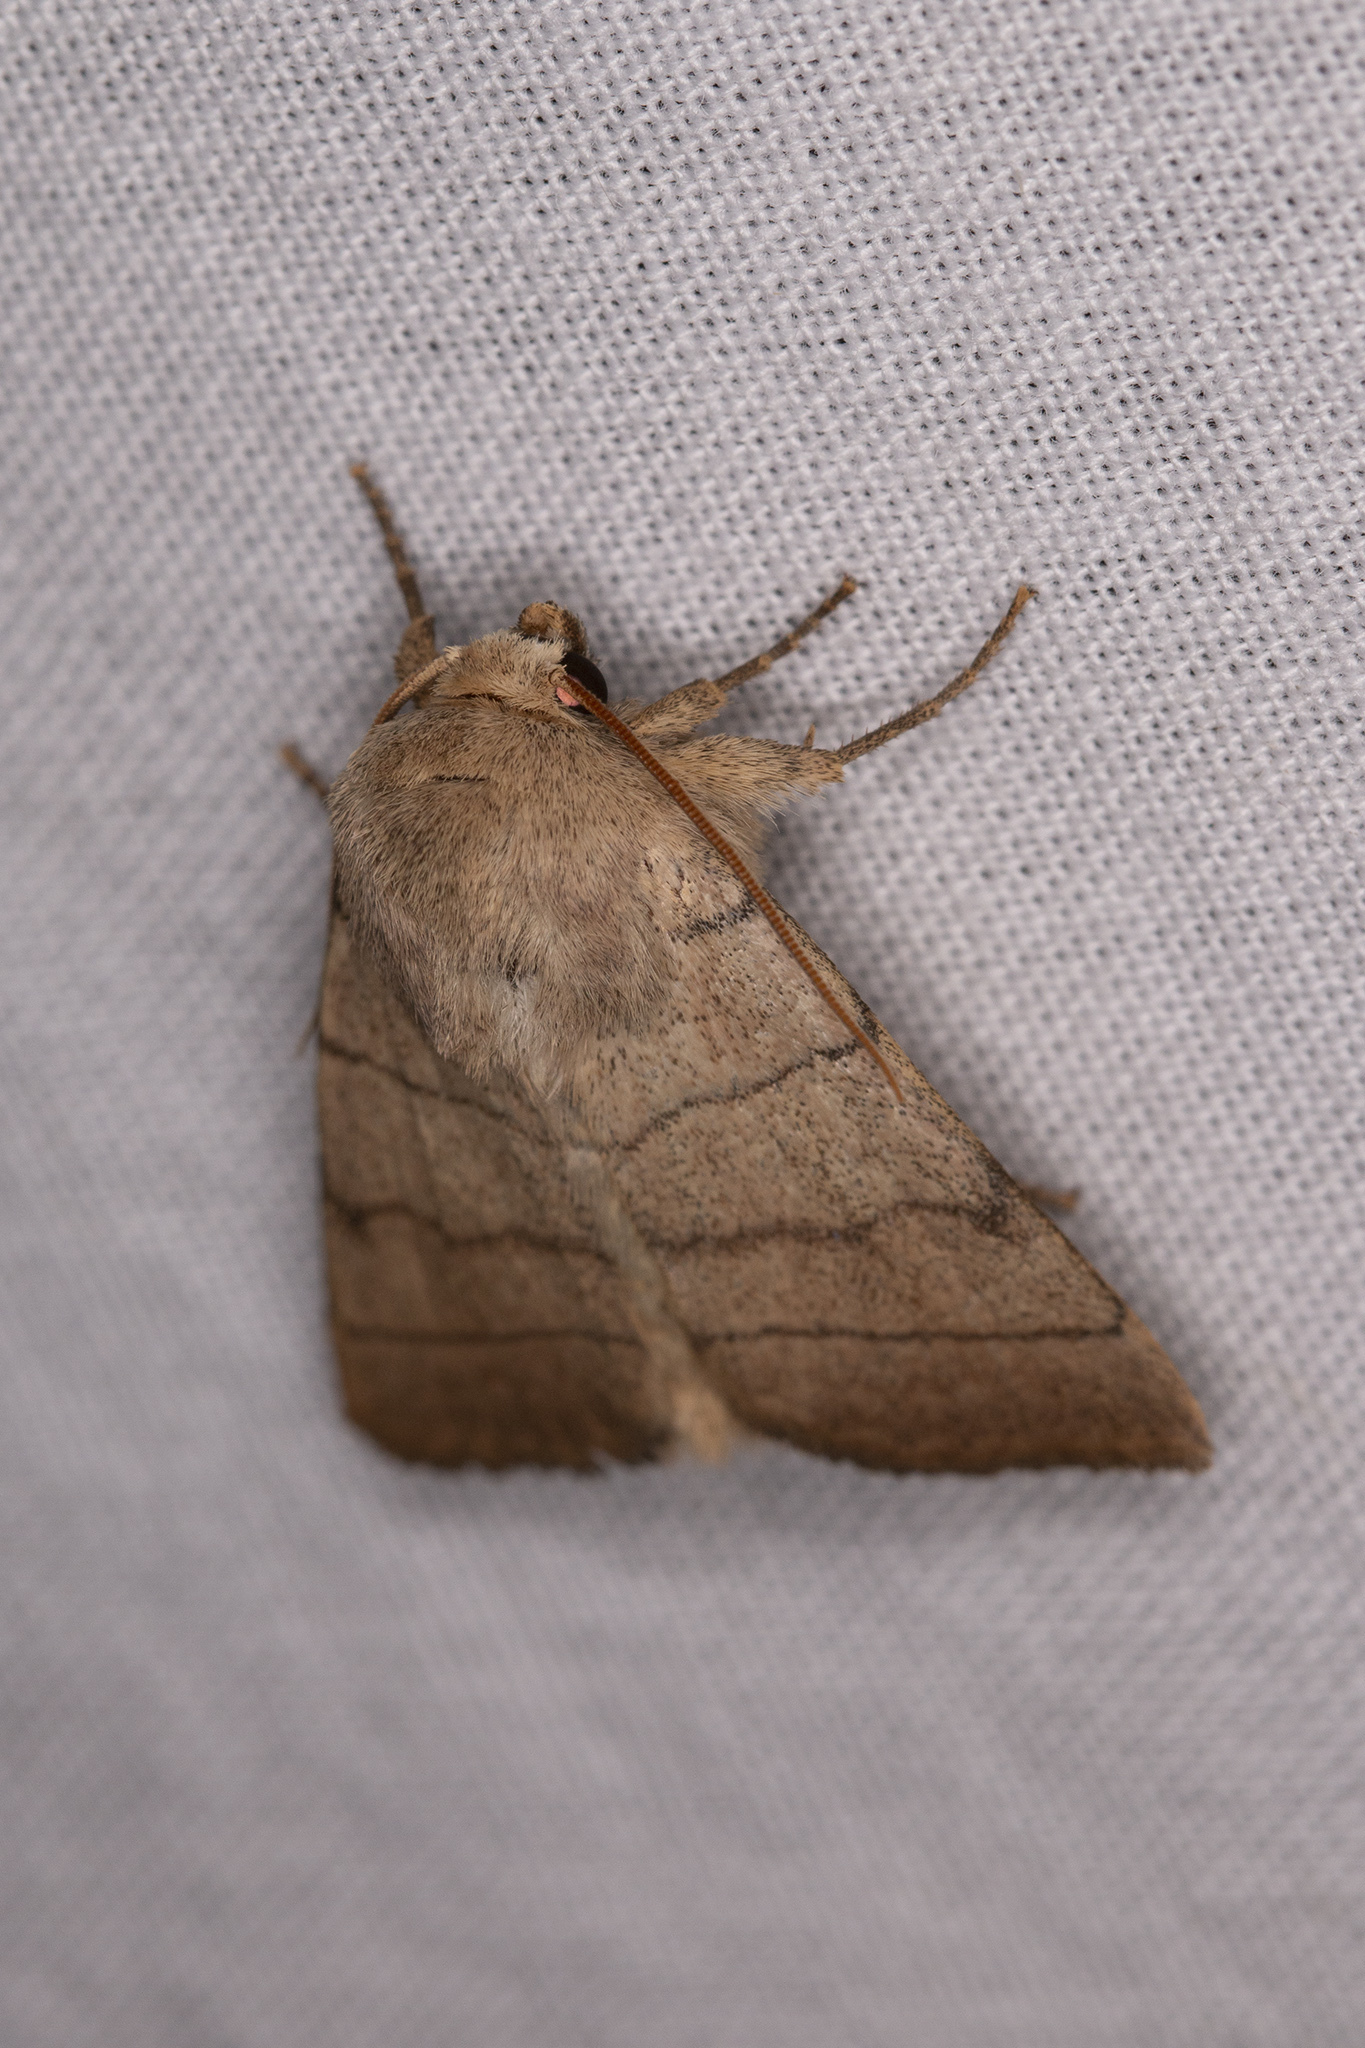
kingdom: Animalia
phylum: Arthropoda
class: Insecta
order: Lepidoptera
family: Noctuidae
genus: Charanyca
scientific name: Charanyca trigrammica
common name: Treble lines
